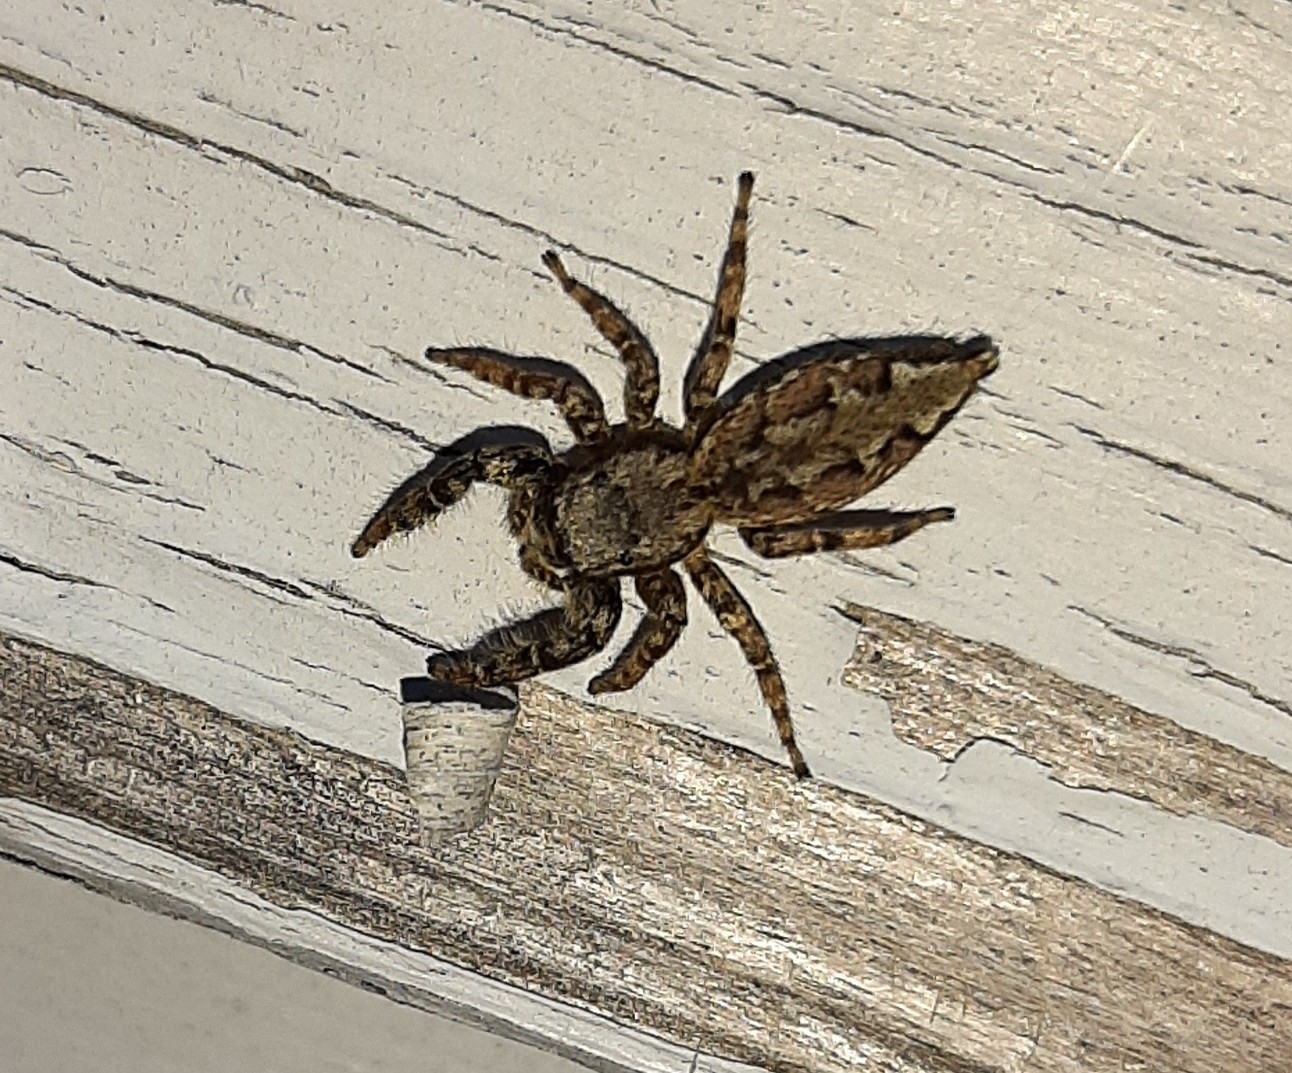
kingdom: Animalia
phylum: Arthropoda
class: Arachnida
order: Araneae
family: Salticidae
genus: Marpissa
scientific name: Marpissa muscosa
